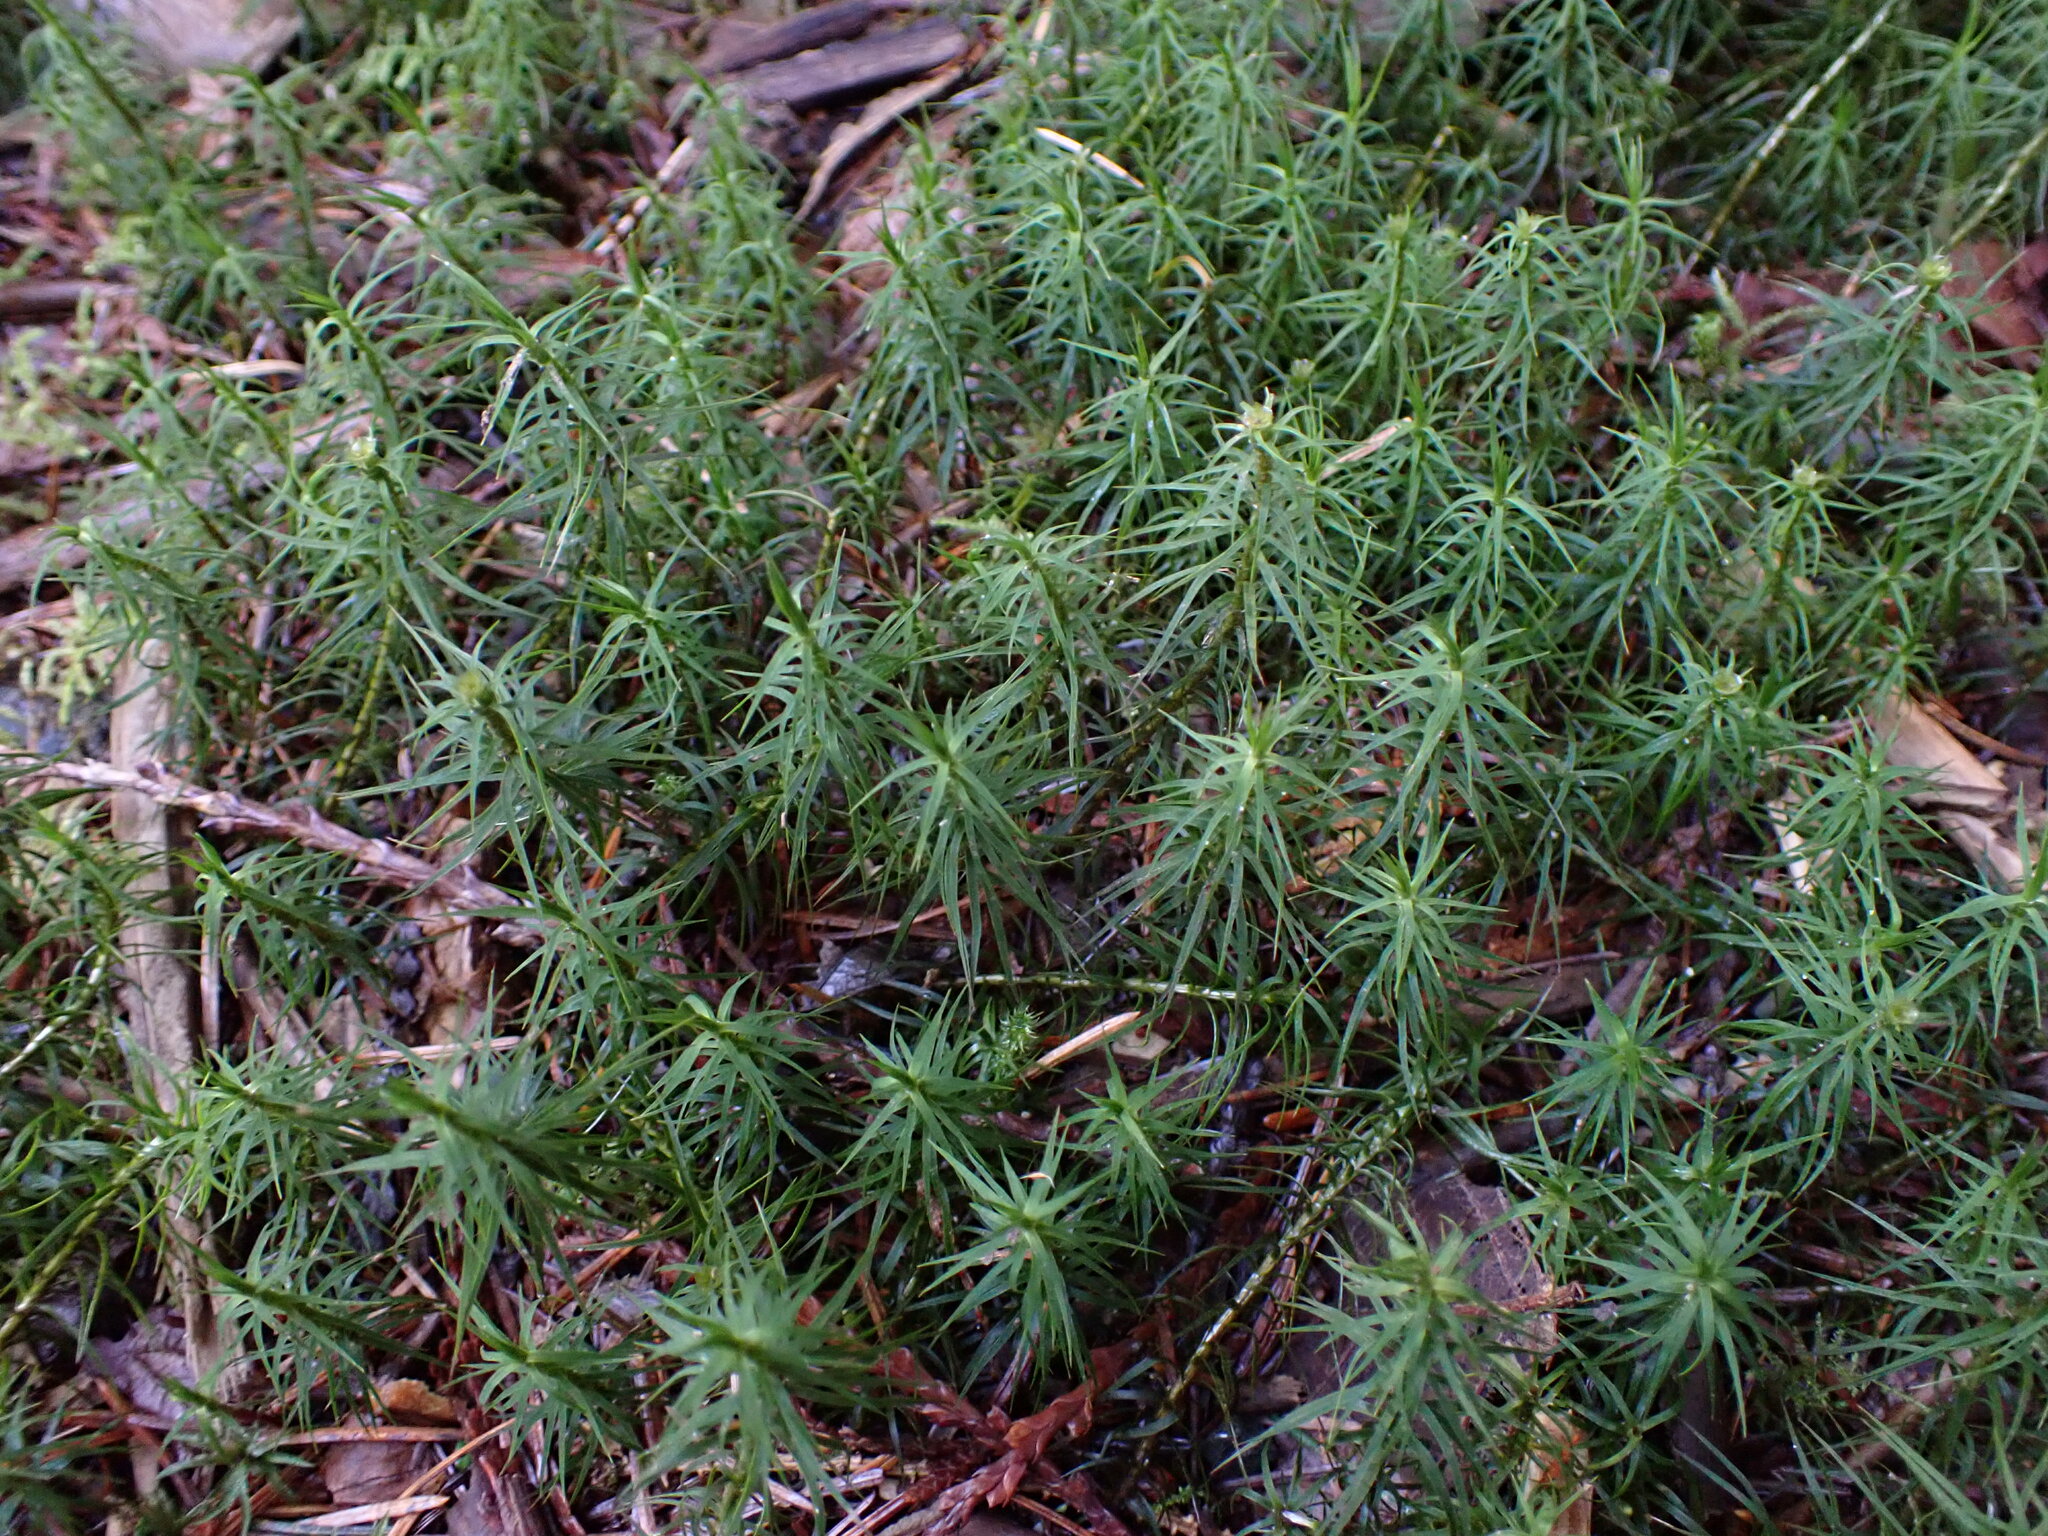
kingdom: Plantae
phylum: Bryophyta
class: Polytrichopsida
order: Polytrichales
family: Polytrichaceae
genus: Polytrichastrum
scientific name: Polytrichastrum alpinum
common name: Alpine haircap
